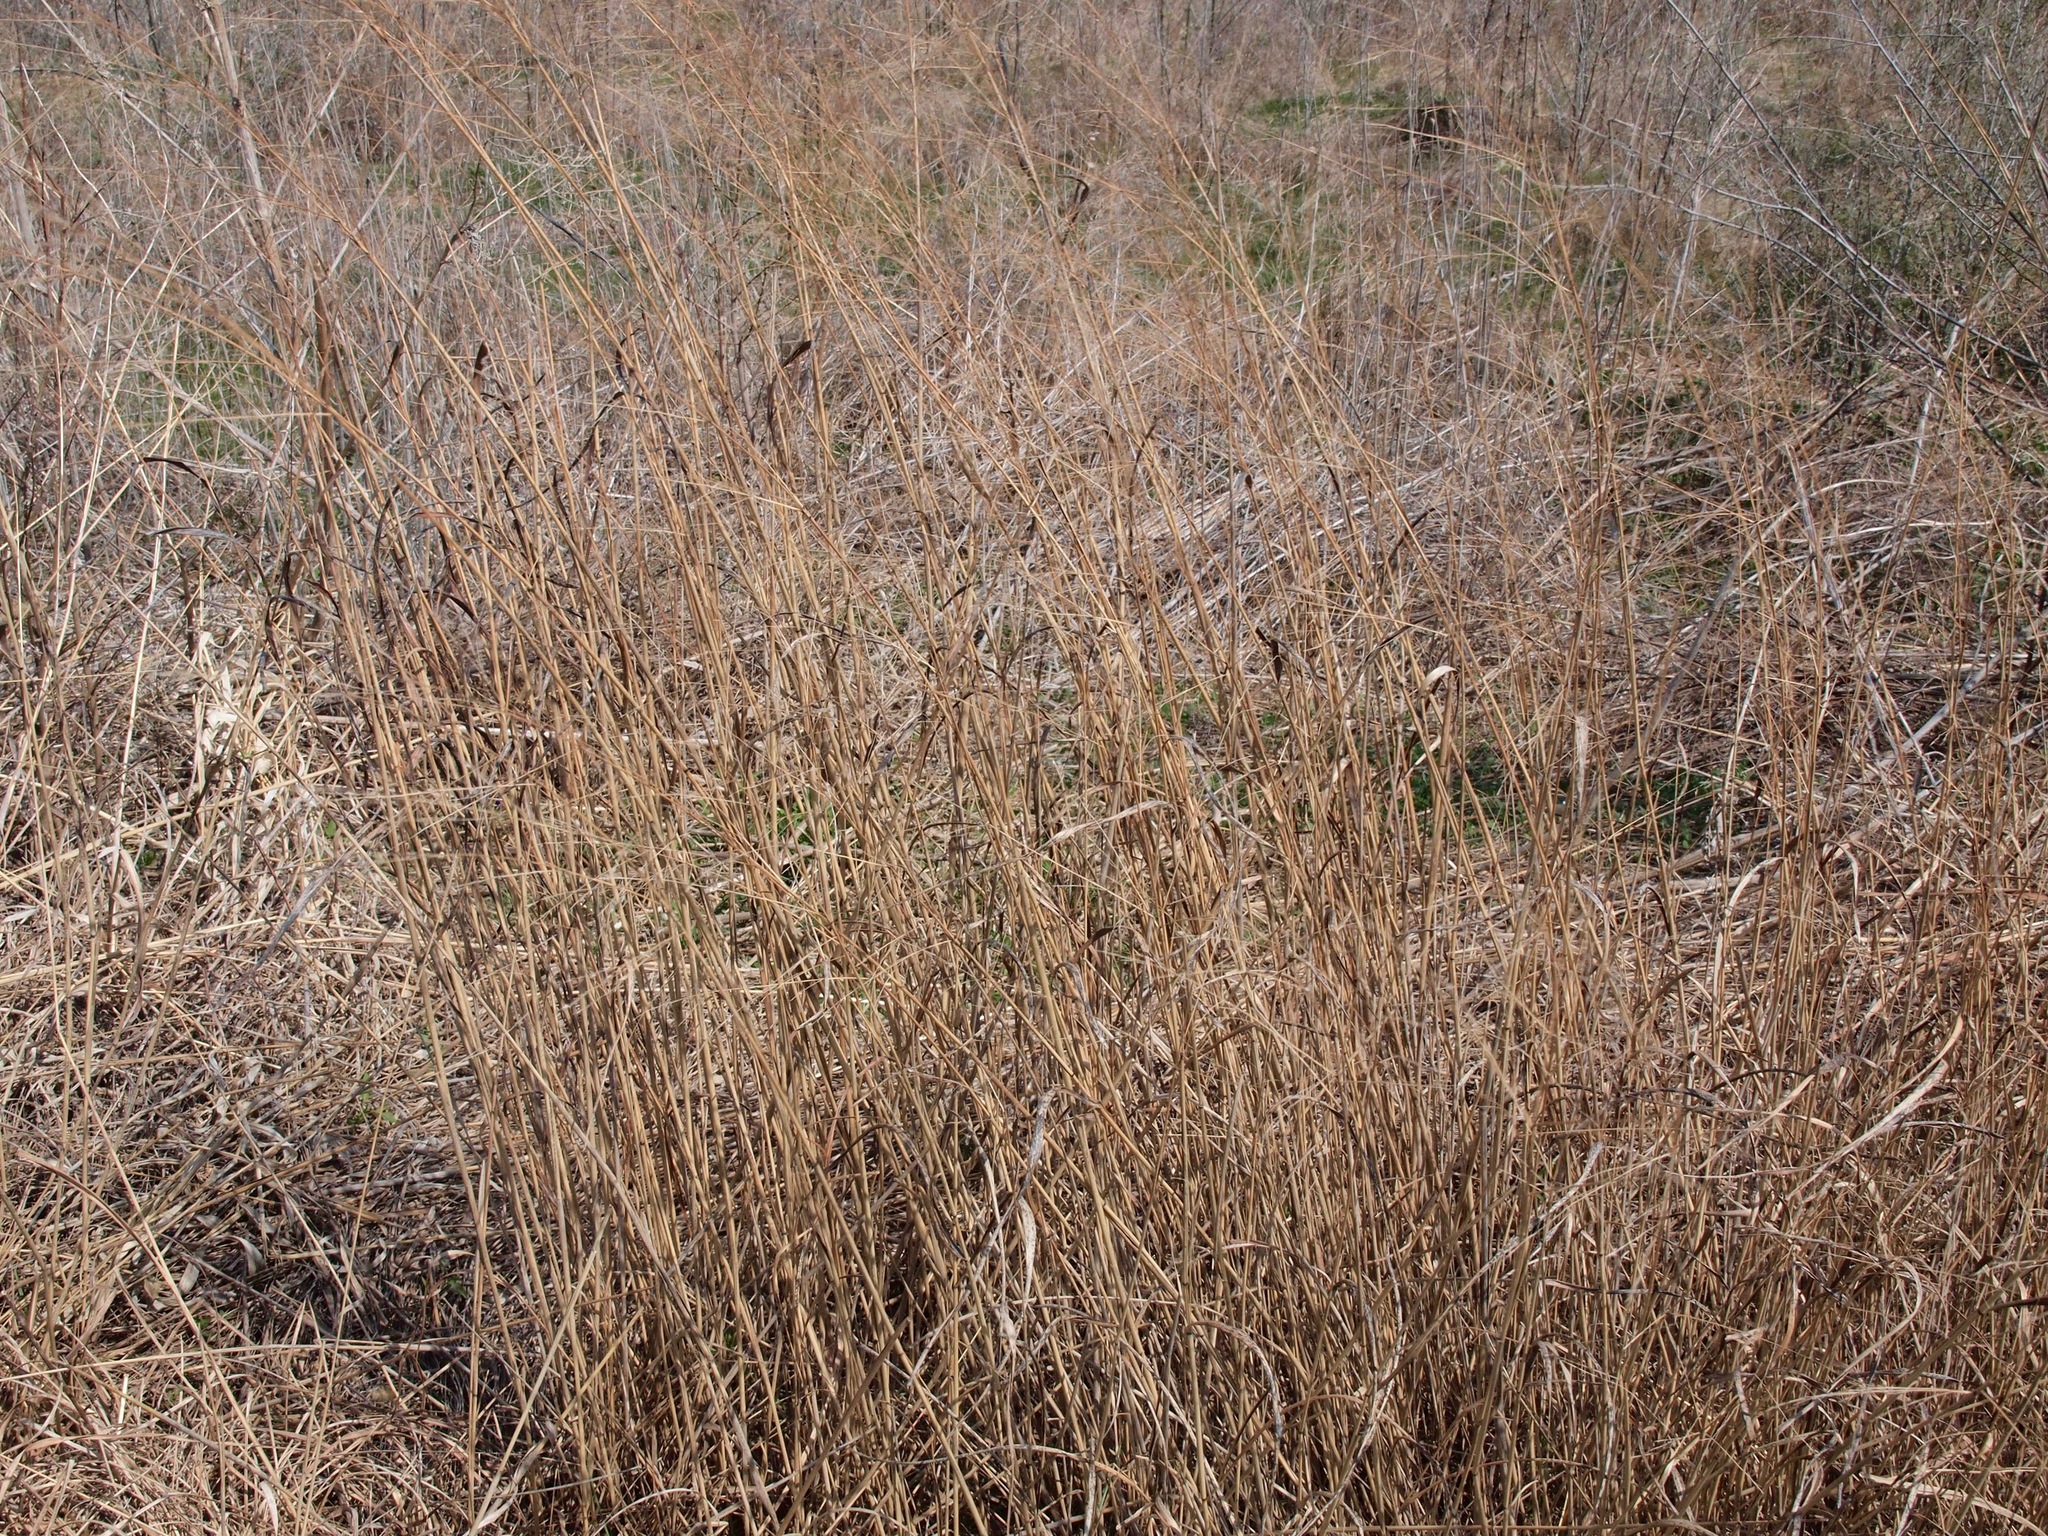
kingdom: Plantae
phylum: Tracheophyta
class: Liliopsida
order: Poales
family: Poaceae
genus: Panicum
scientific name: Panicum virgatum
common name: Switchgrass
